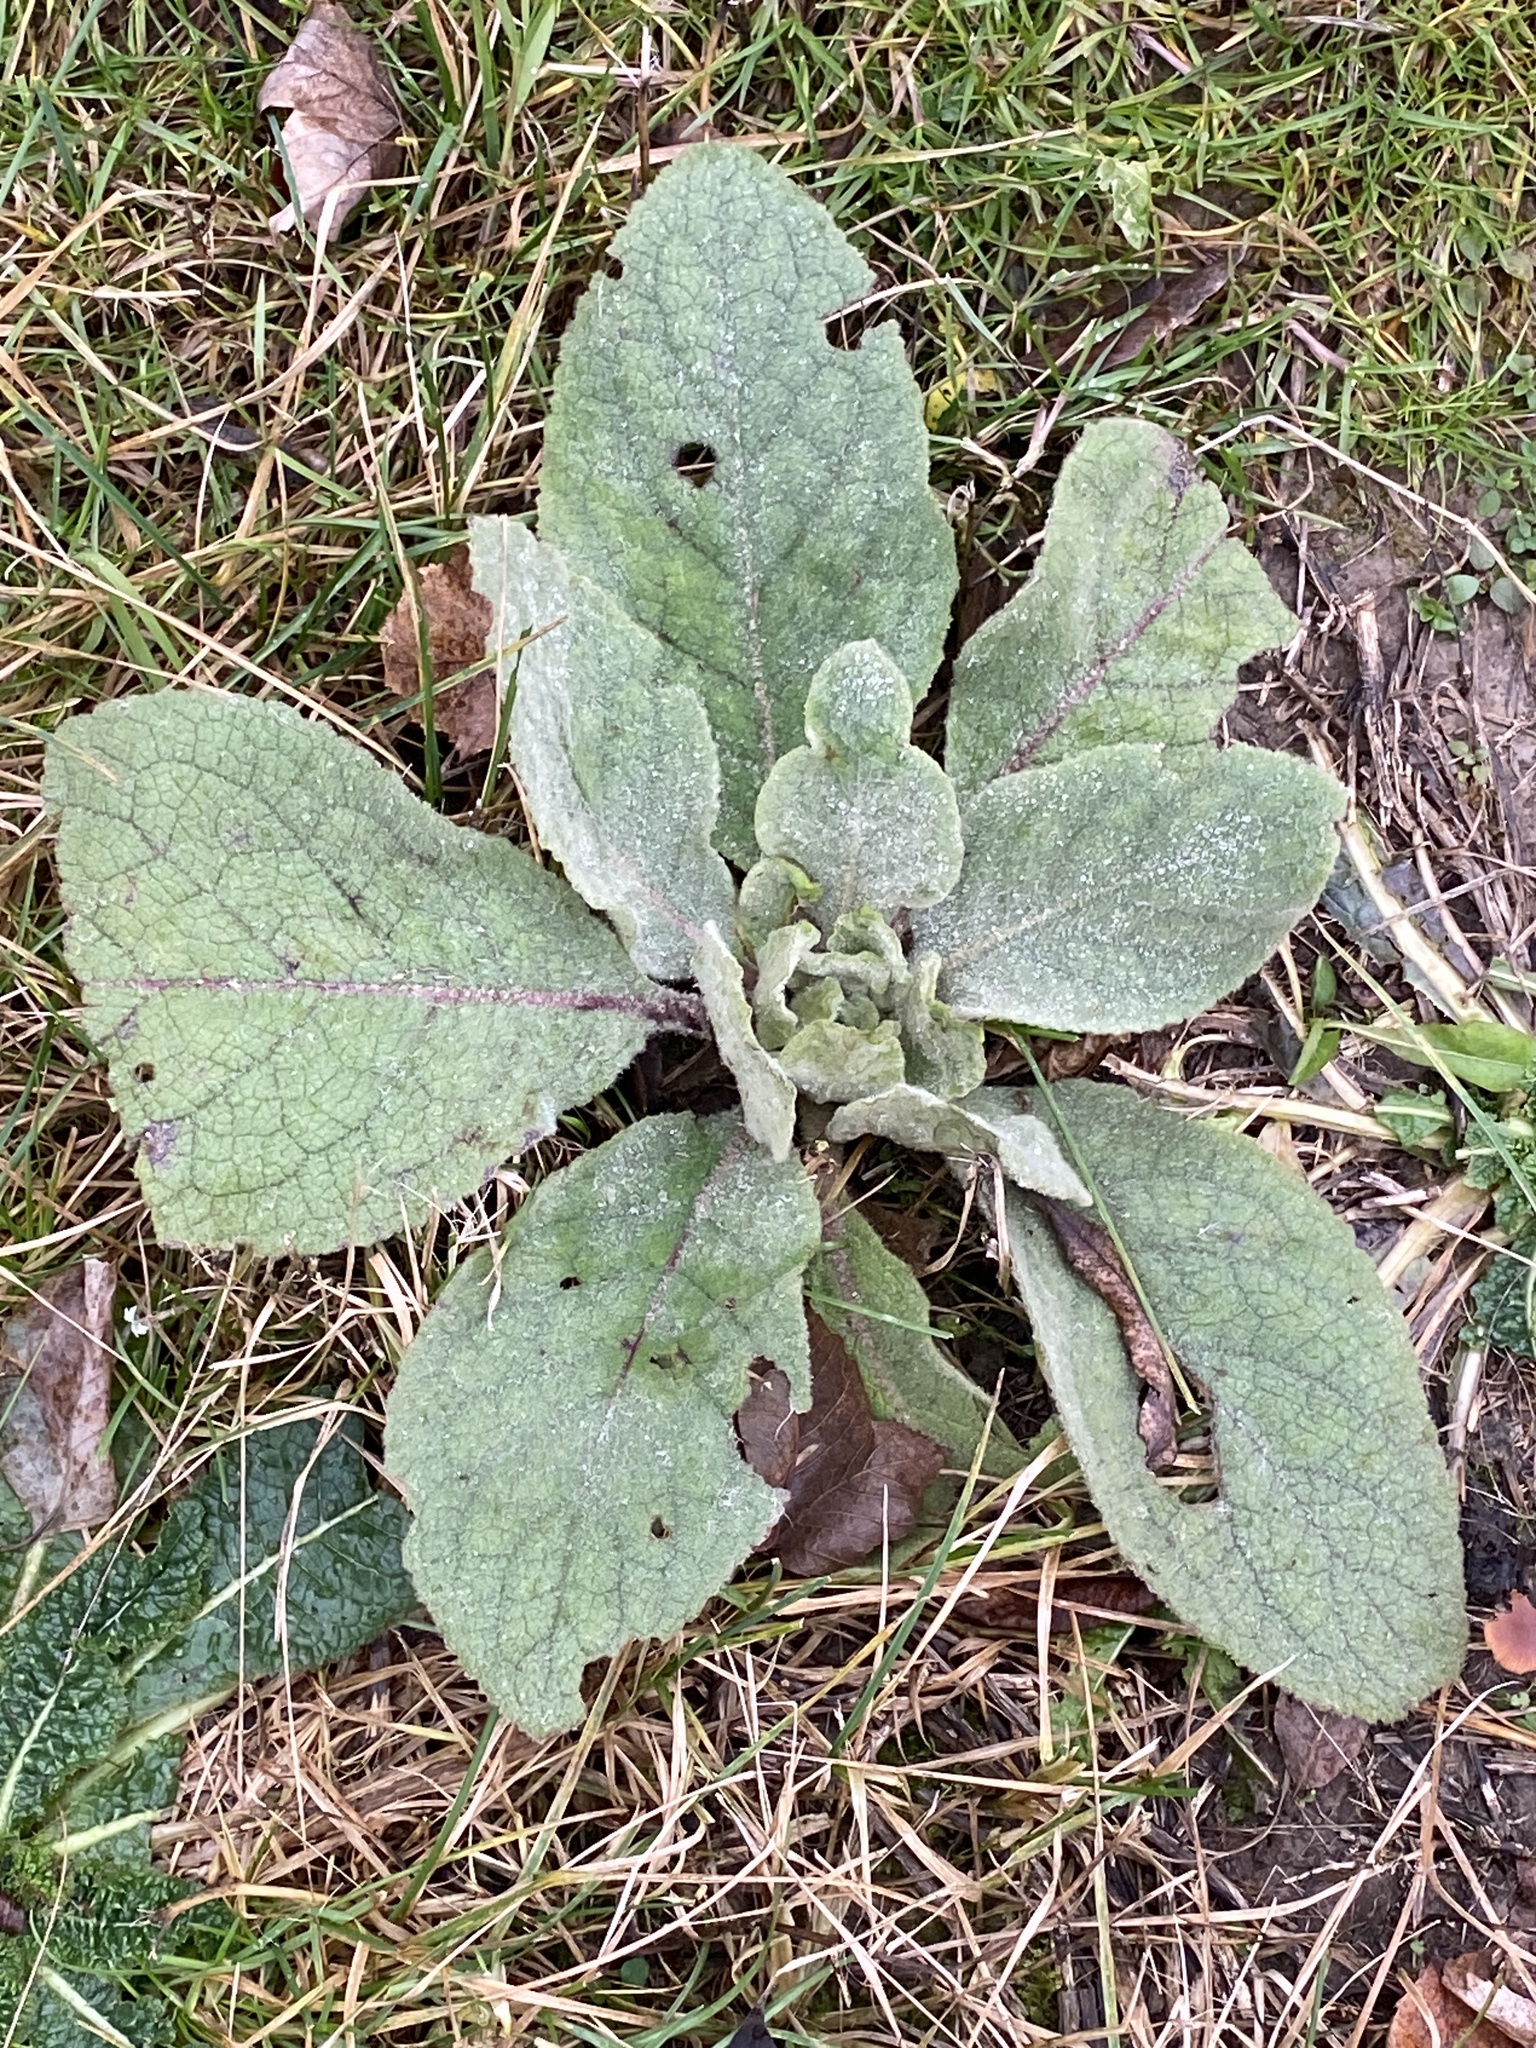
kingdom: Plantae
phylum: Tracheophyta
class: Magnoliopsida
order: Lamiales
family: Scrophulariaceae
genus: Verbascum
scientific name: Verbascum thapsus
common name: Common mullein
